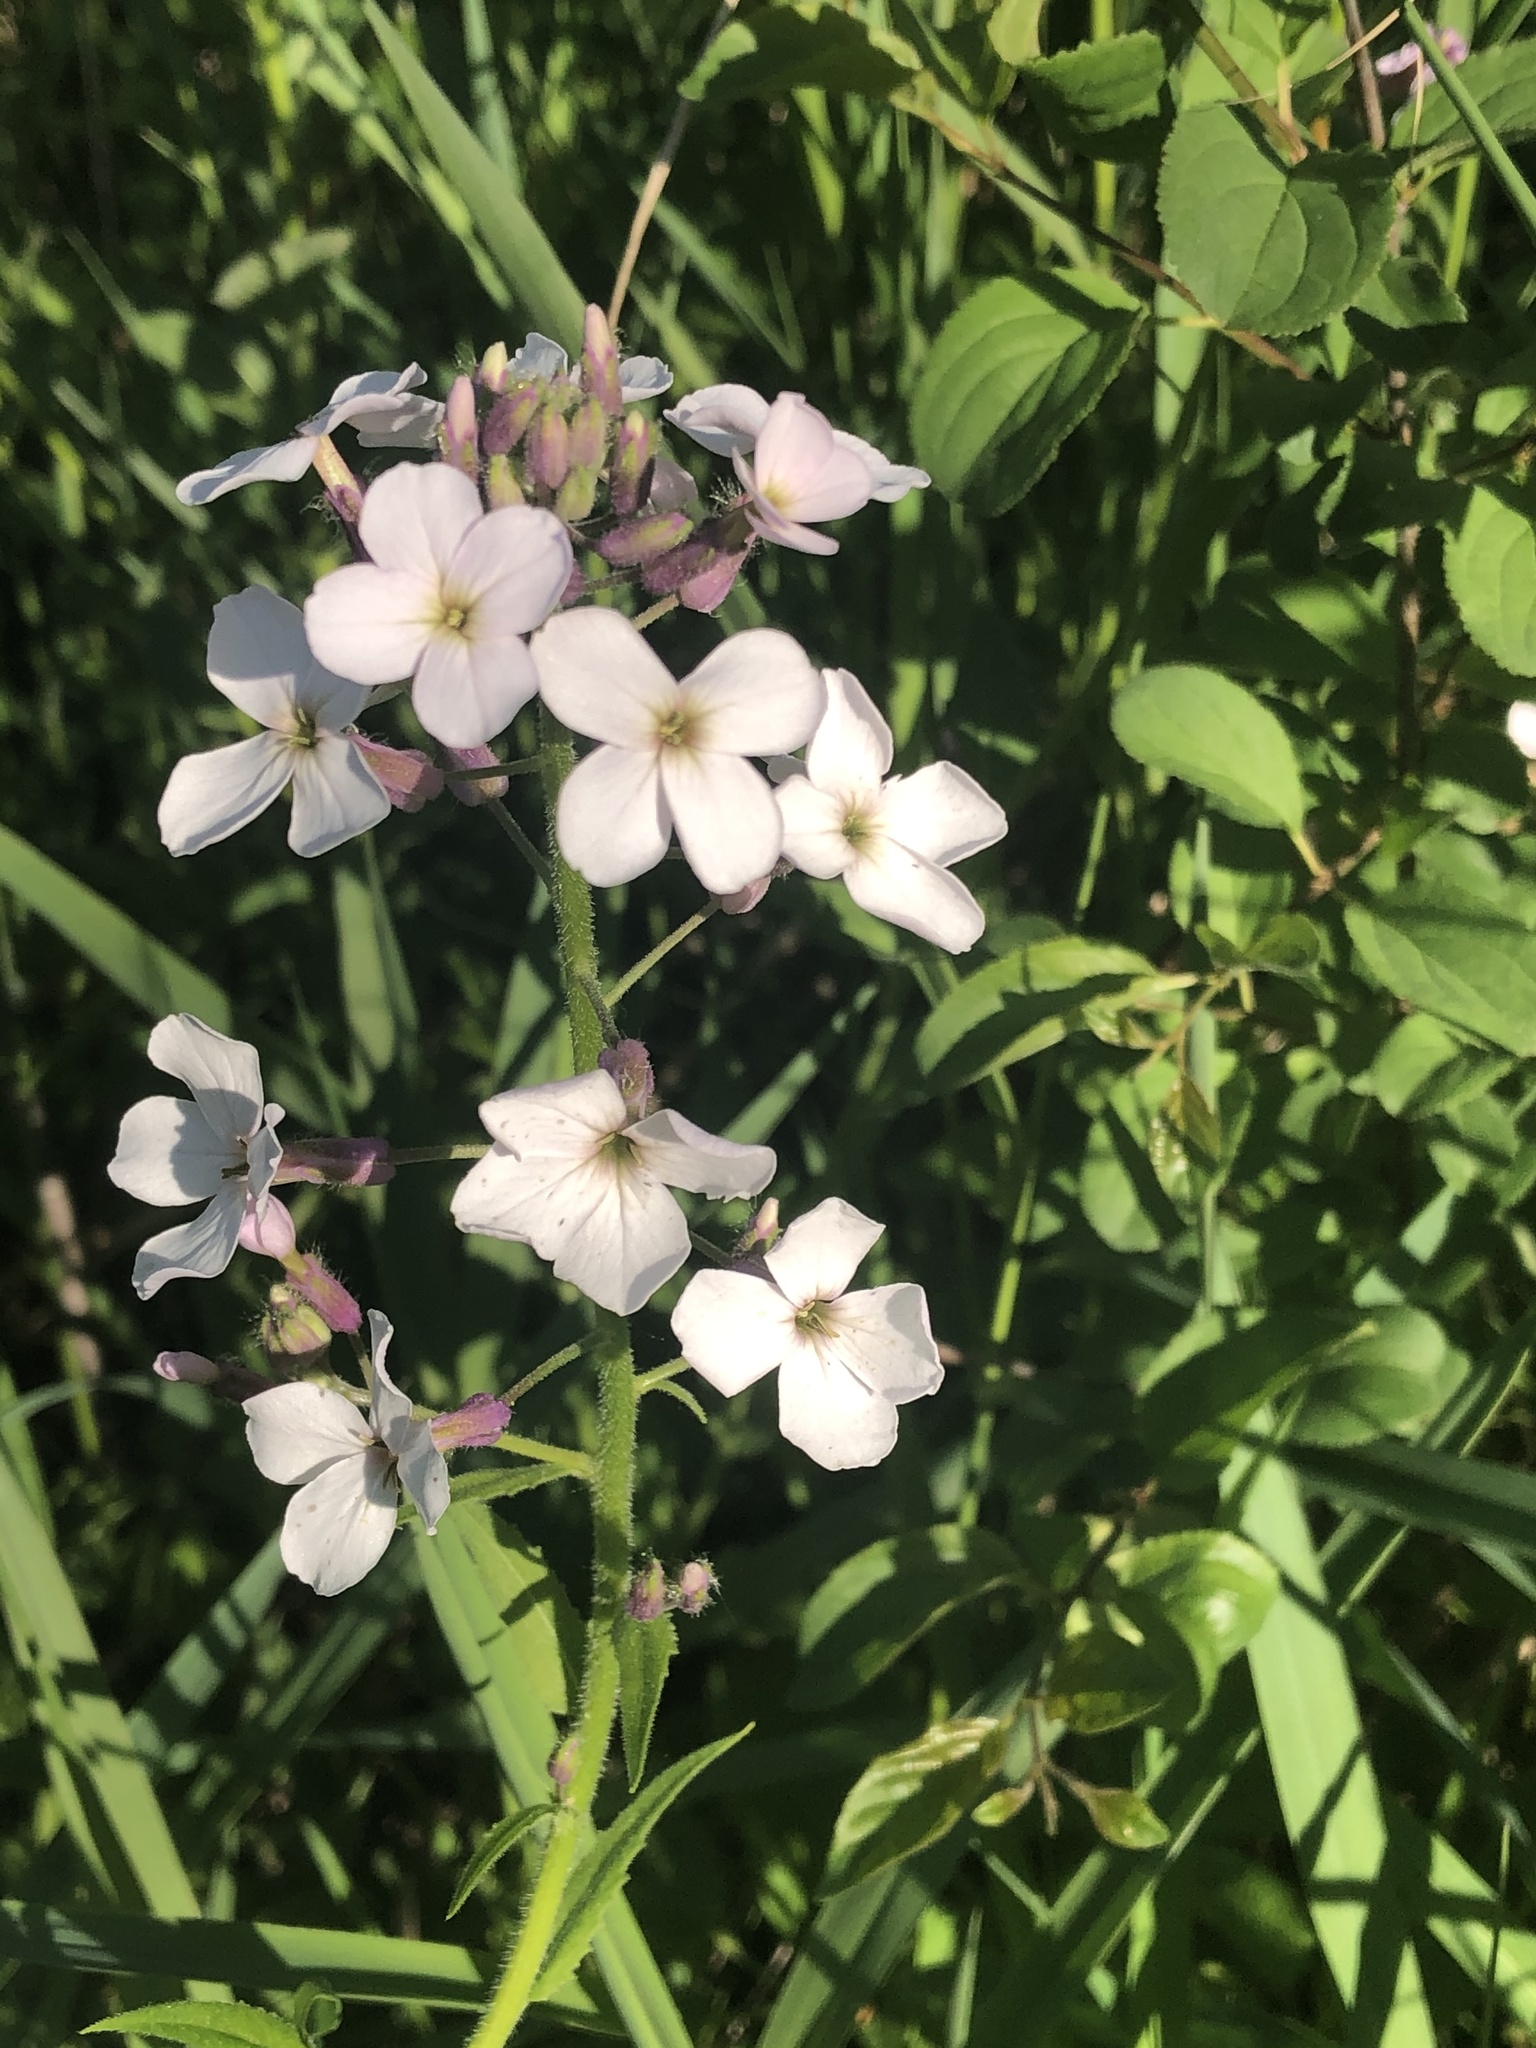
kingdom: Plantae
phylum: Tracheophyta
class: Magnoliopsida
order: Brassicales
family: Brassicaceae
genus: Hesperis
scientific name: Hesperis matronalis
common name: Dame's-violet
